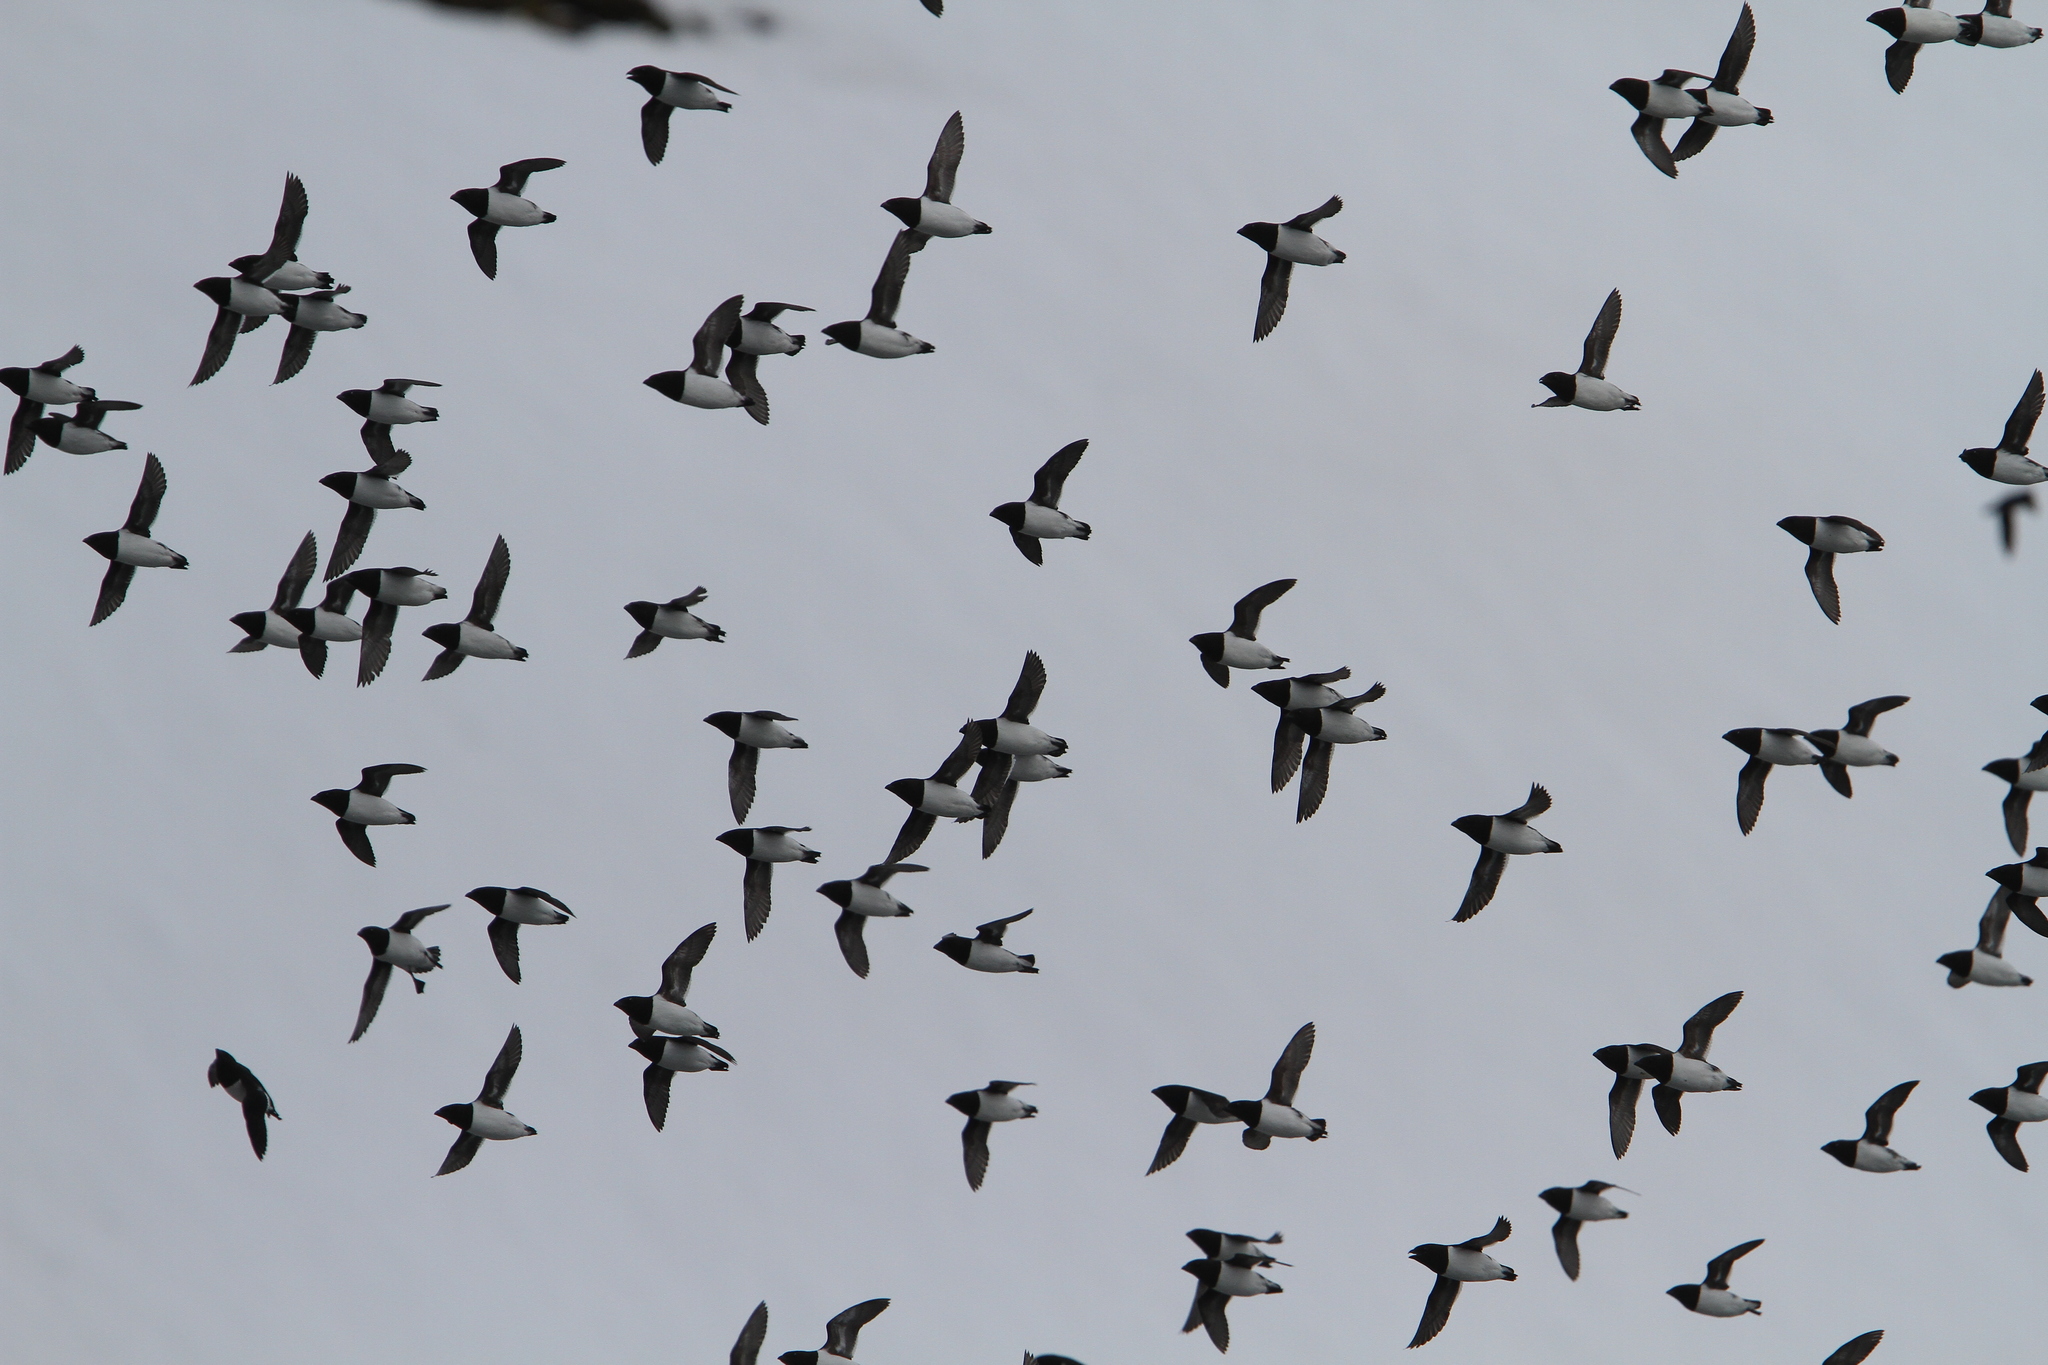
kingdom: Animalia
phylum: Chordata
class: Aves
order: Charadriiformes
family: Alcidae
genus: Alle
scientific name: Alle alle
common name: Little auk
